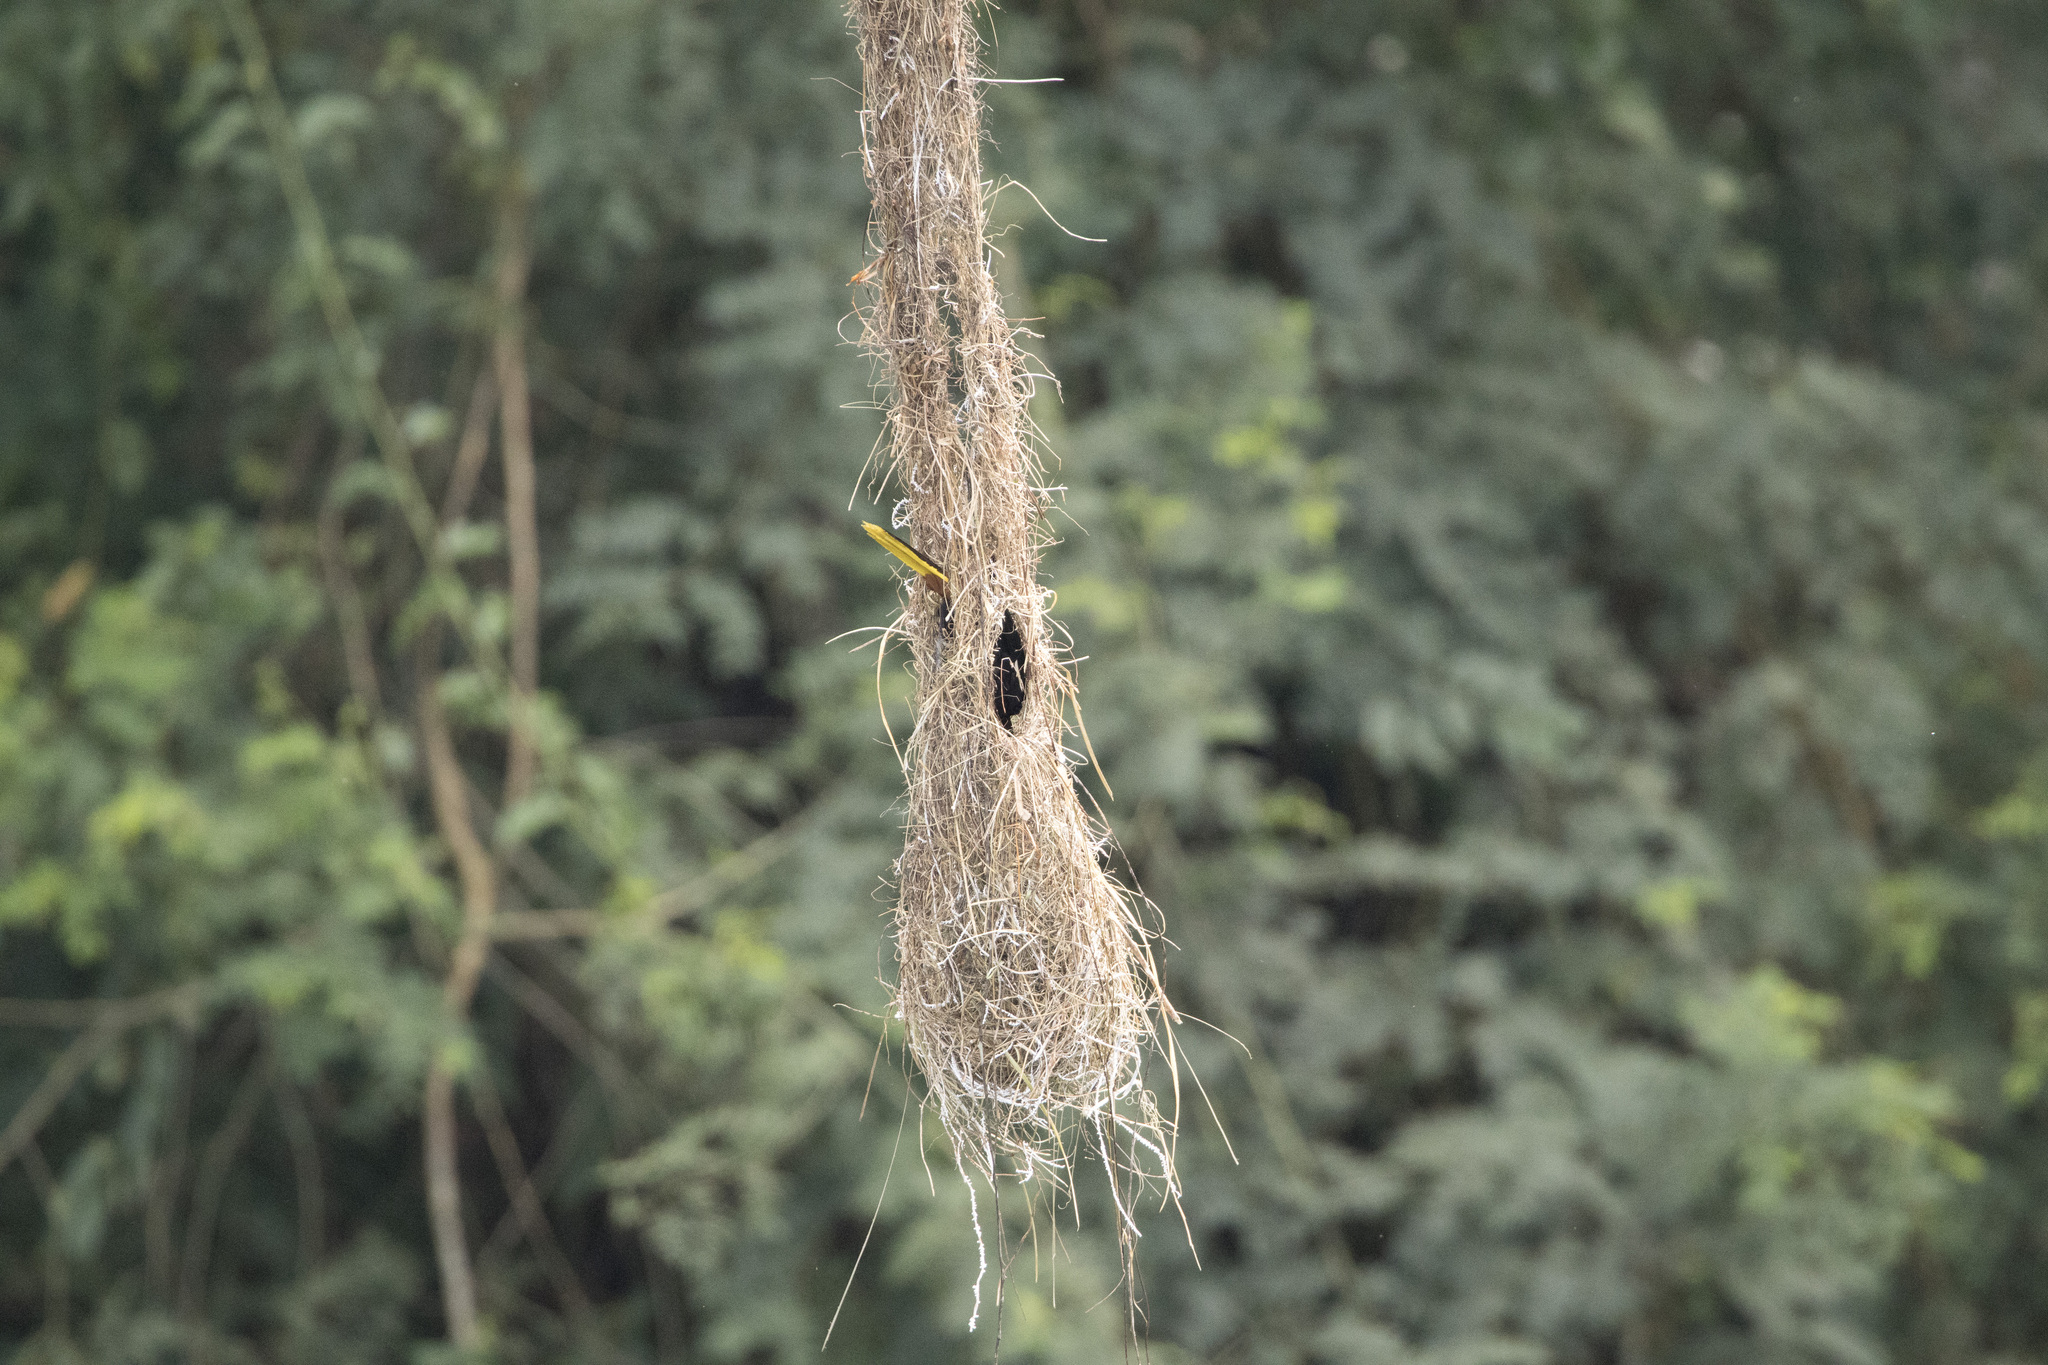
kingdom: Animalia
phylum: Chordata
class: Aves
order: Passeriformes
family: Icteridae
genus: Psarocolius
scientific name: Psarocolius decumanus
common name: Crested oropendola
